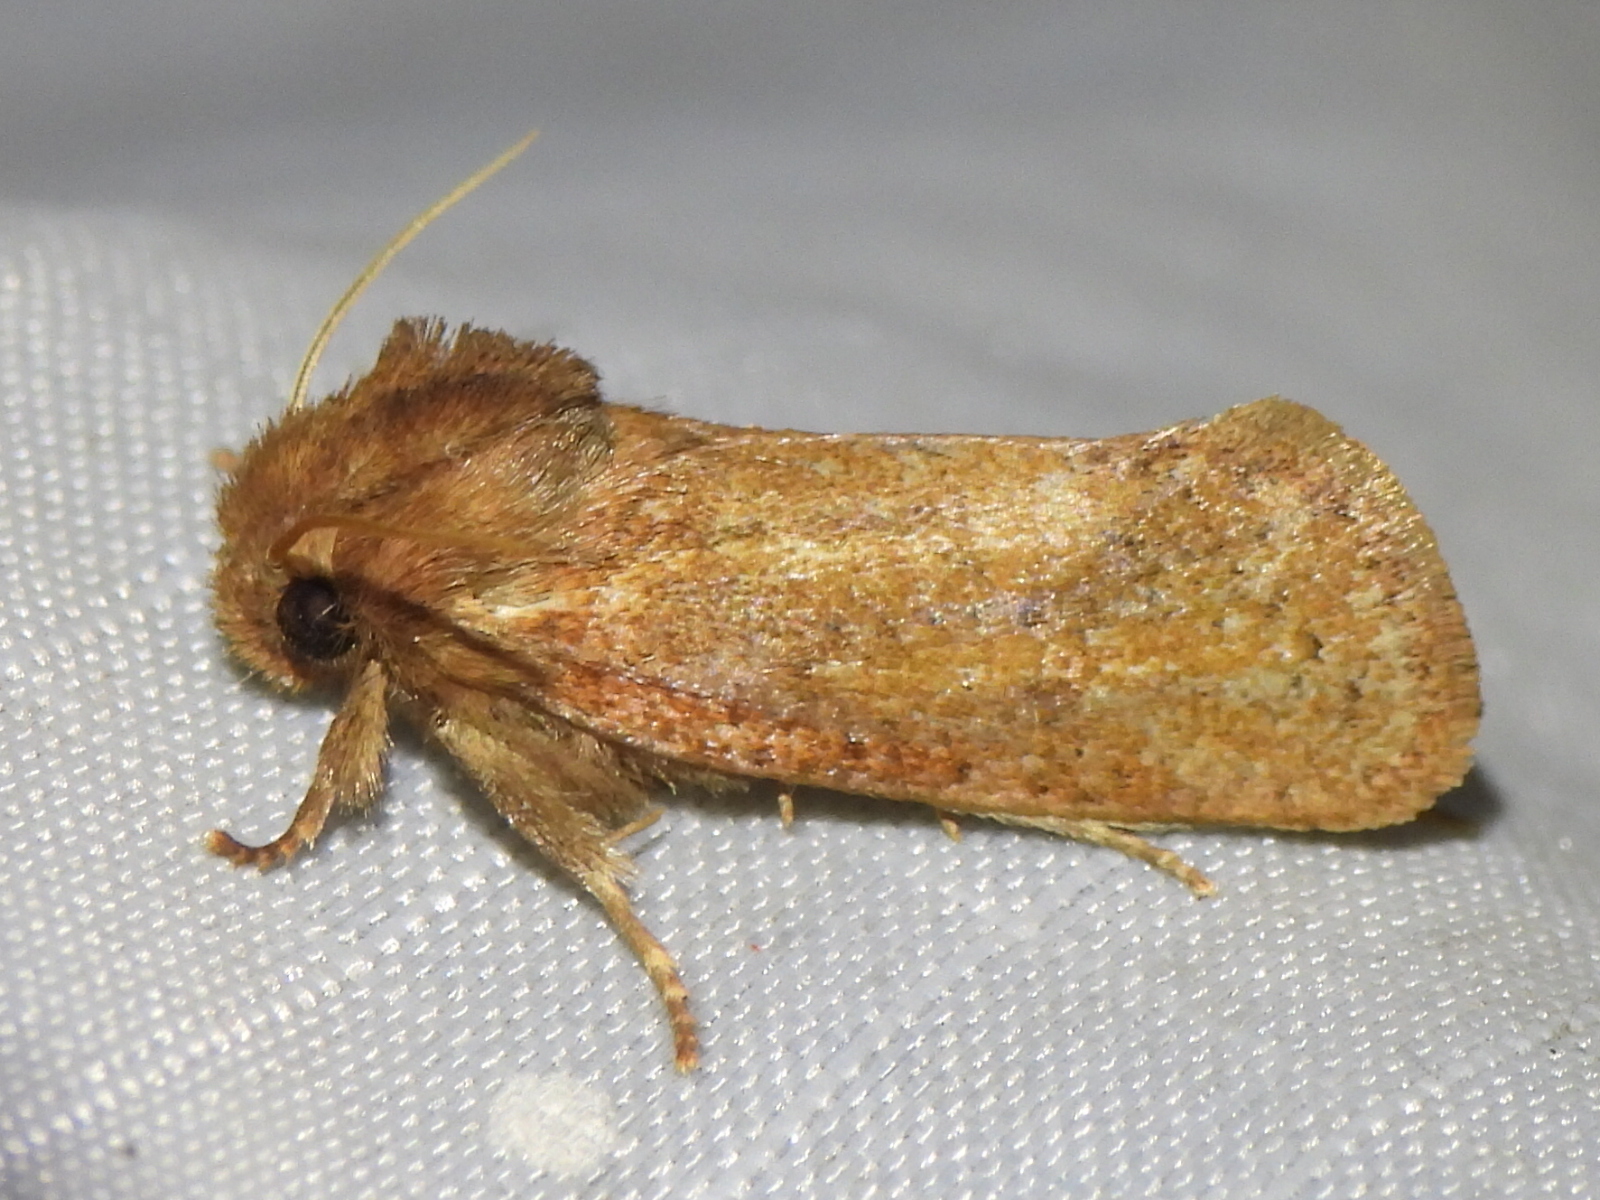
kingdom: Animalia
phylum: Arthropoda
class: Insecta
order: Lepidoptera
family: Tineidae
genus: Acrolophus
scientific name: Acrolophus plumifrontella
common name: Eastern grass tubeworm moth
